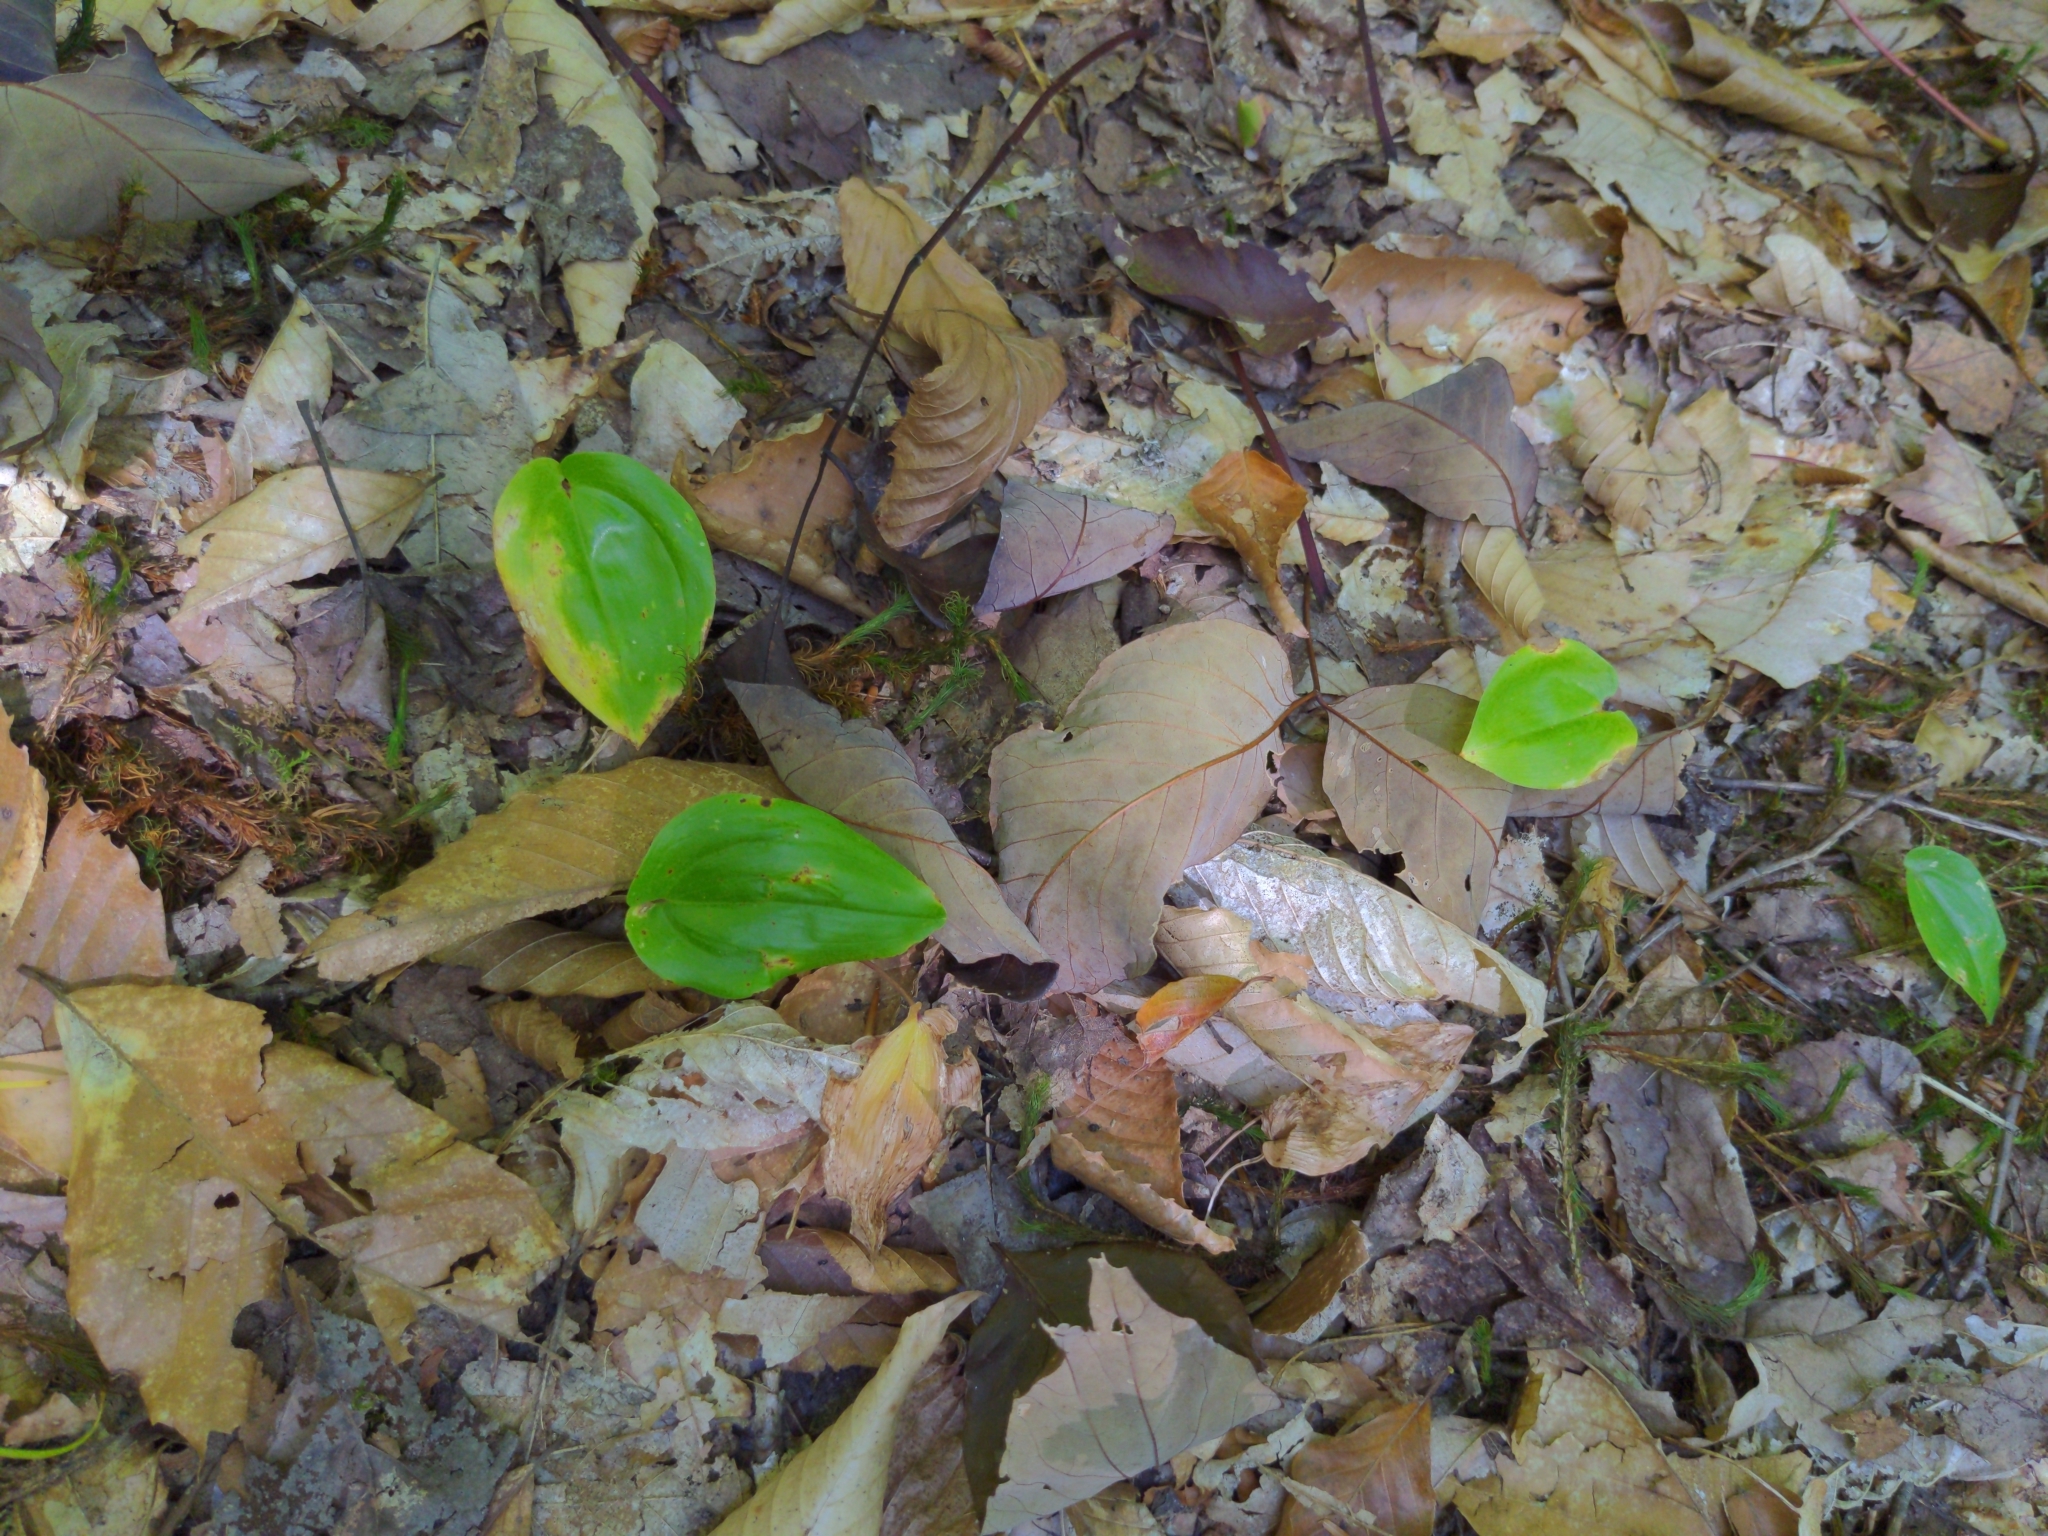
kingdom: Plantae
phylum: Tracheophyta
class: Liliopsida
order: Asparagales
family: Asparagaceae
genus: Maianthemum
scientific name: Maianthemum canadense
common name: False lily-of-the-valley
